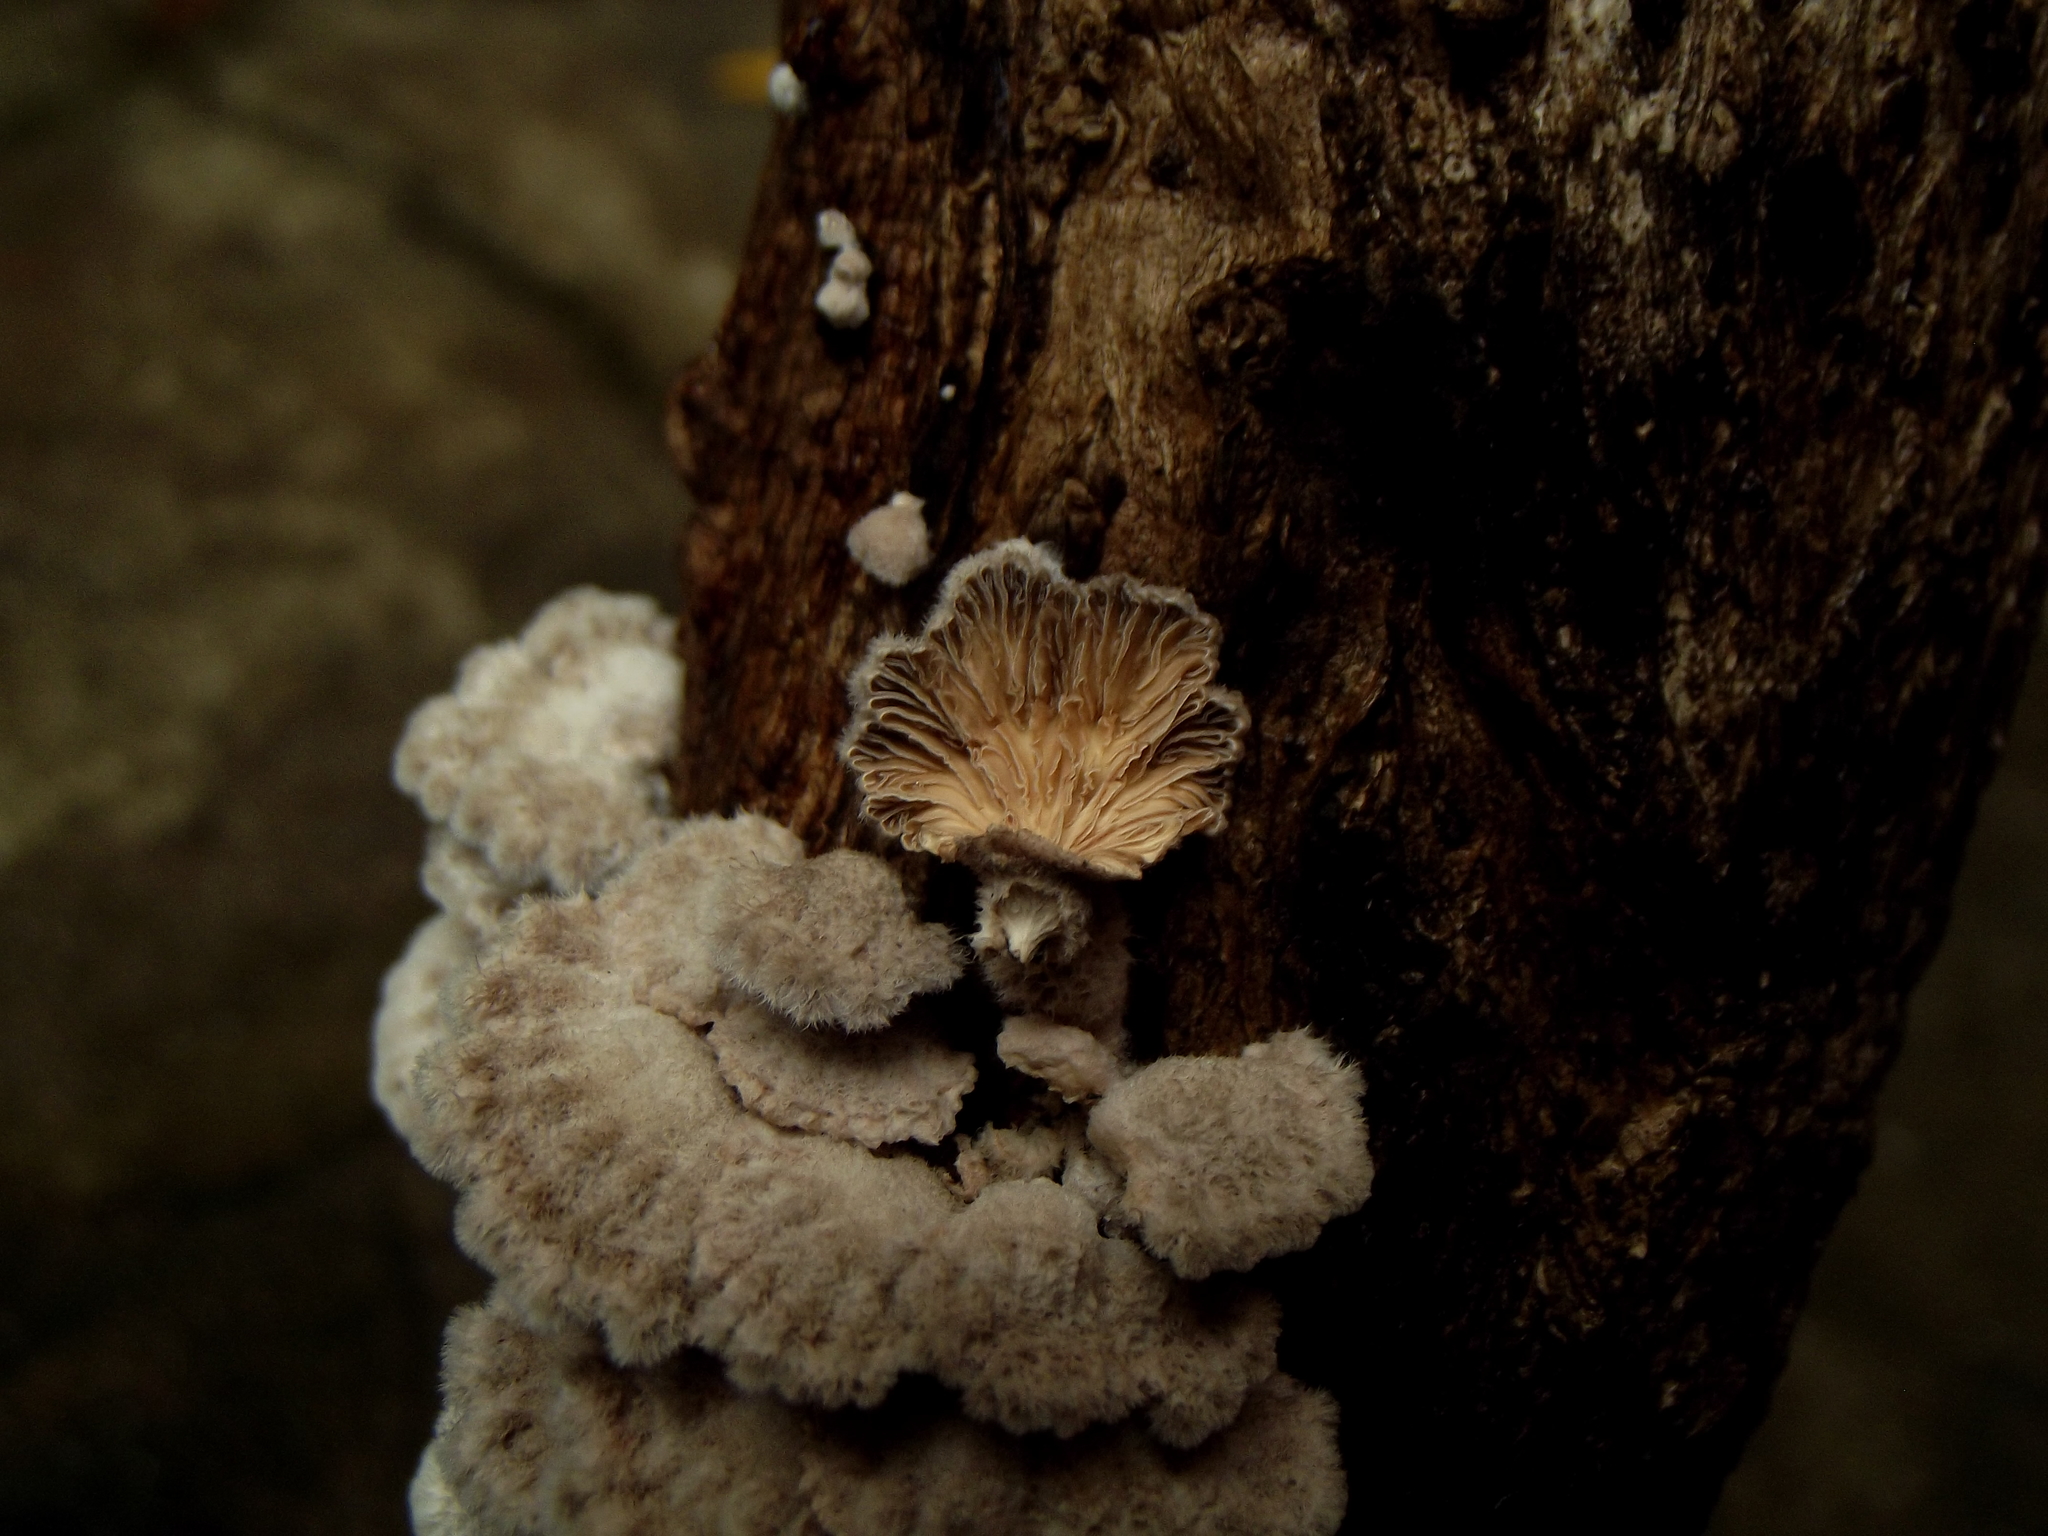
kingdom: Fungi
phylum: Basidiomycota
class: Agaricomycetes
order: Agaricales
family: Schizophyllaceae
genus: Schizophyllum
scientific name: Schizophyllum commune
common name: Common porecrust
